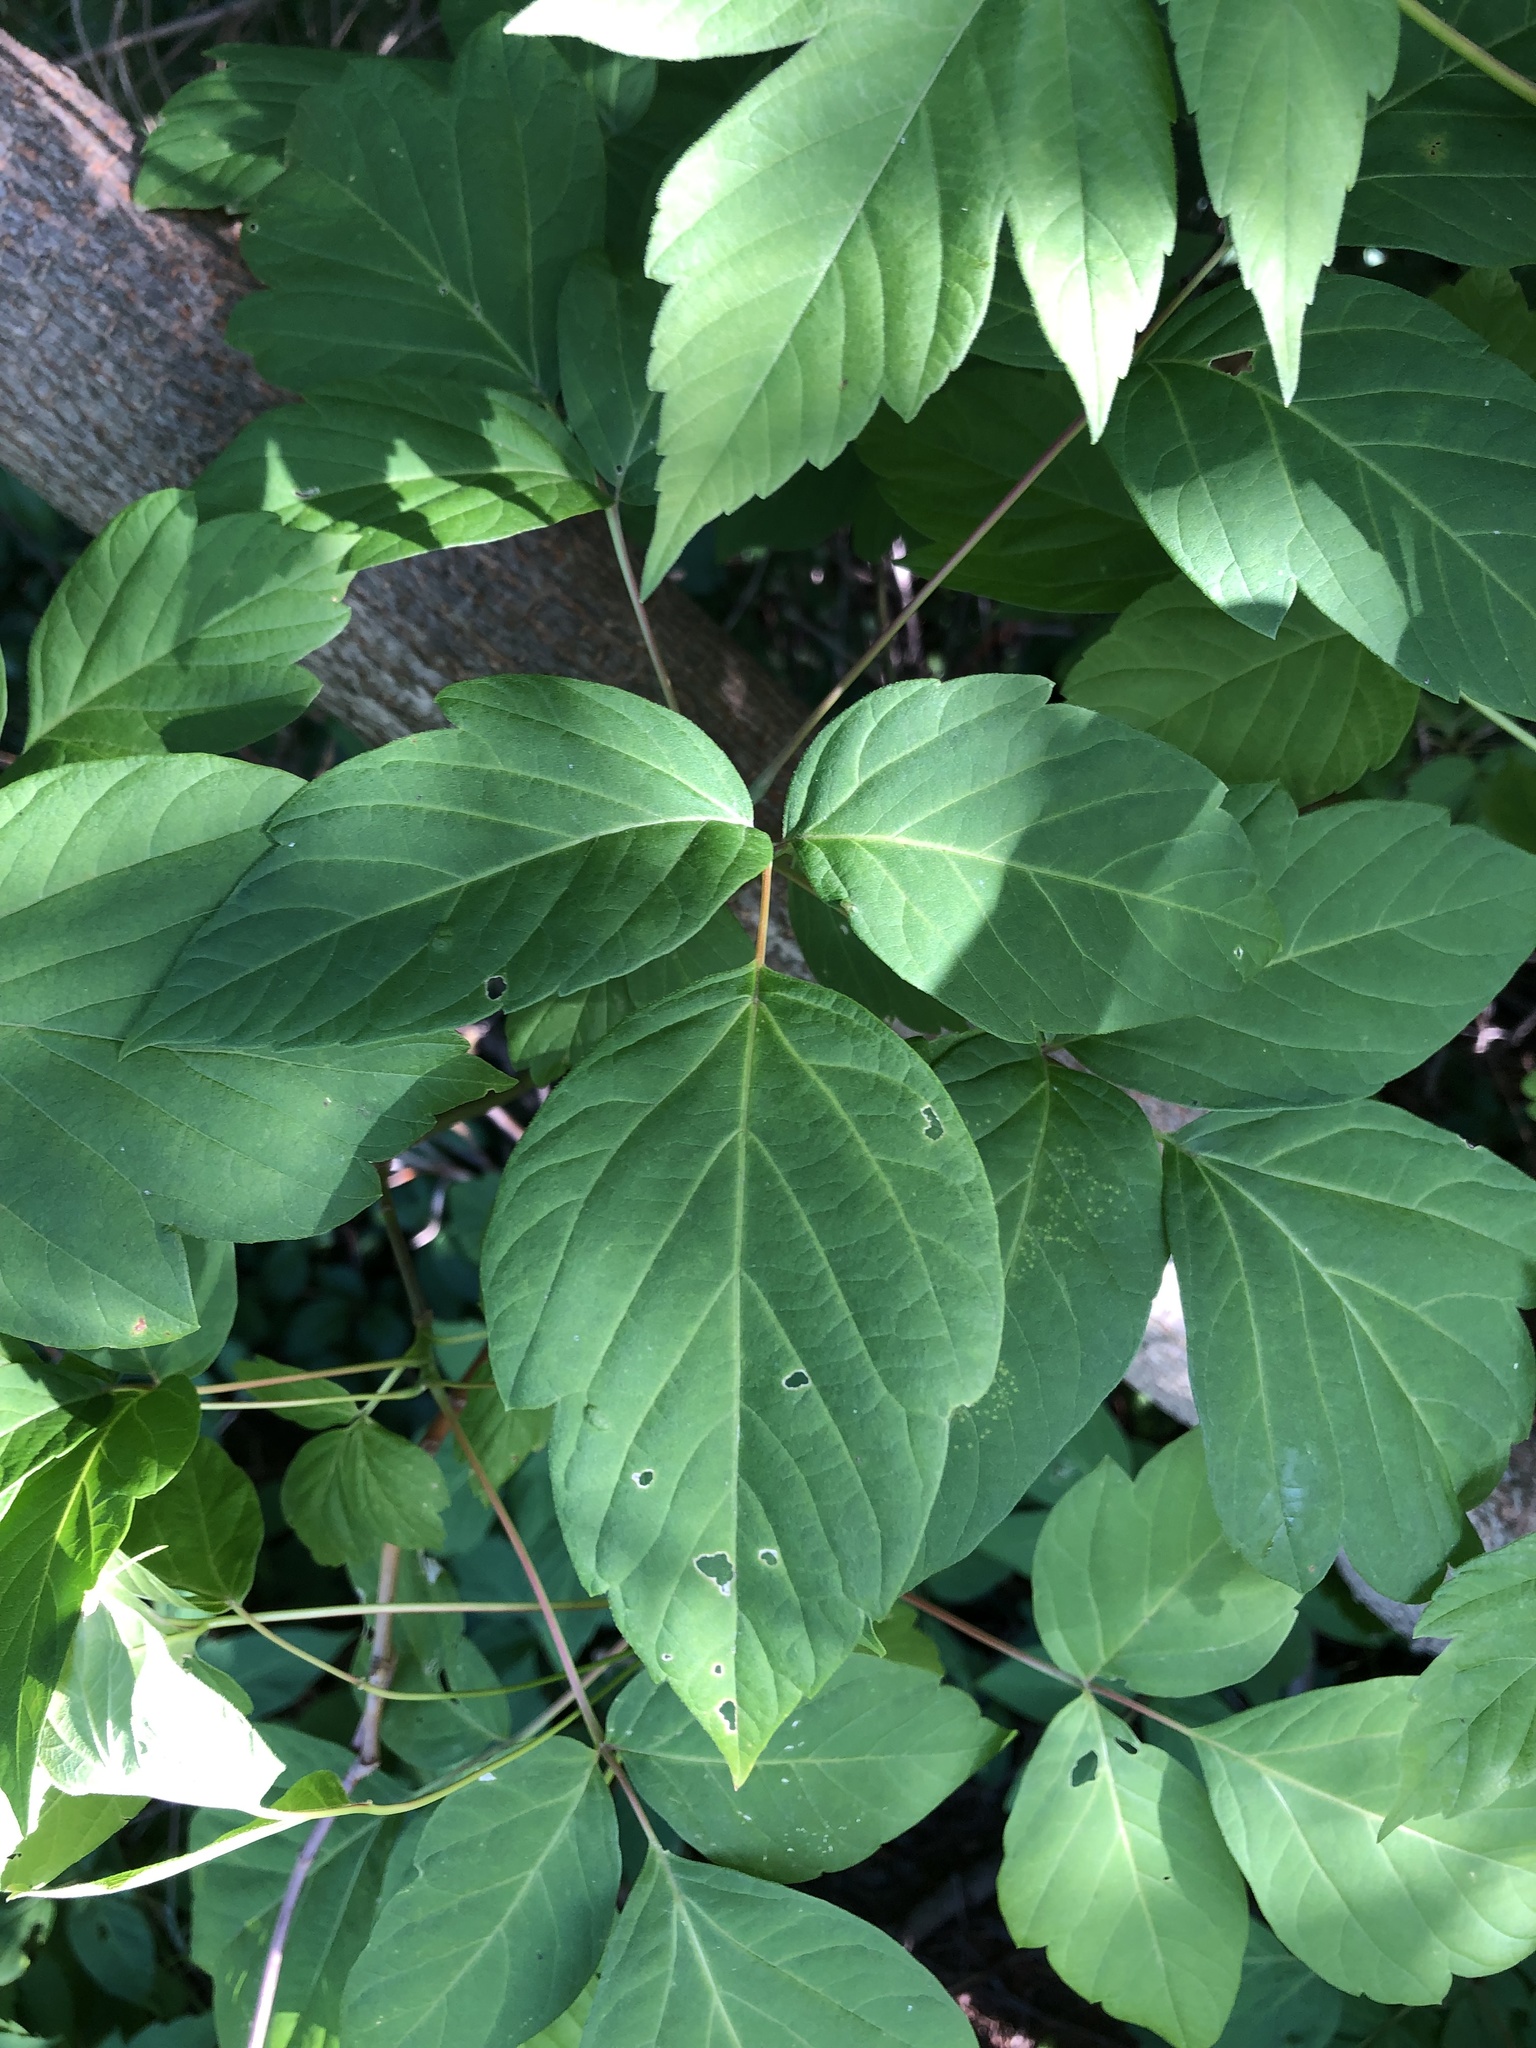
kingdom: Plantae
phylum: Tracheophyta
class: Magnoliopsida
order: Sapindales
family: Sapindaceae
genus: Acer
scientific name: Acer negundo
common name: Ashleaf maple
